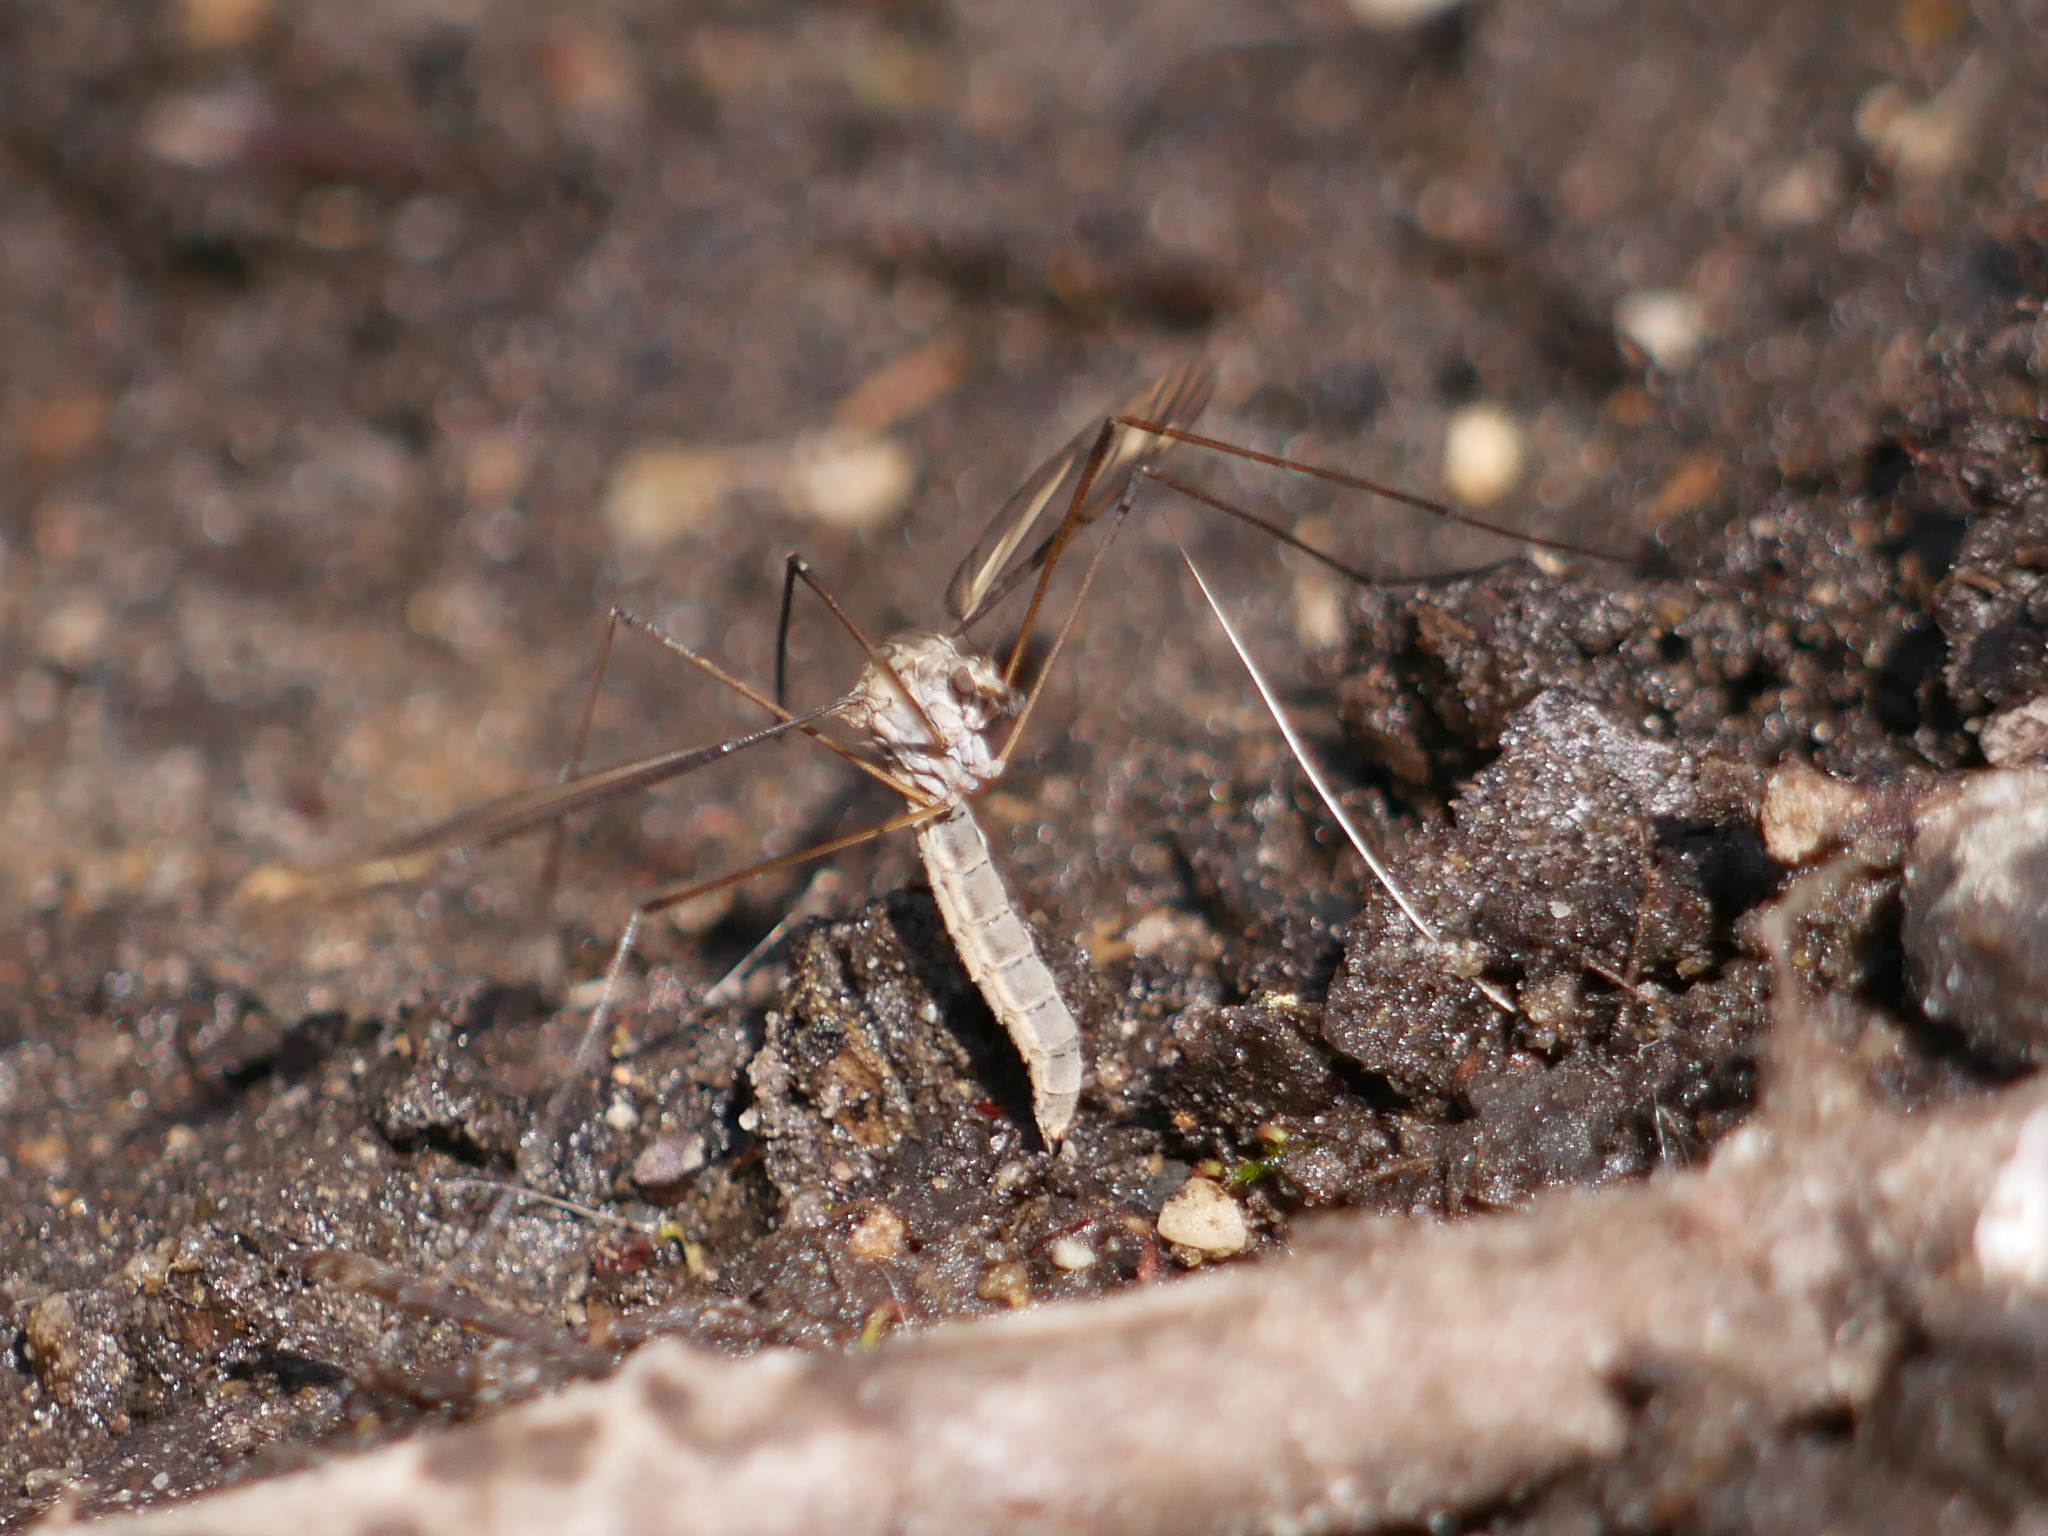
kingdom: Animalia
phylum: Arthropoda
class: Insecta
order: Diptera
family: Tipulidae
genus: Tipula
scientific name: Tipula oleracea
